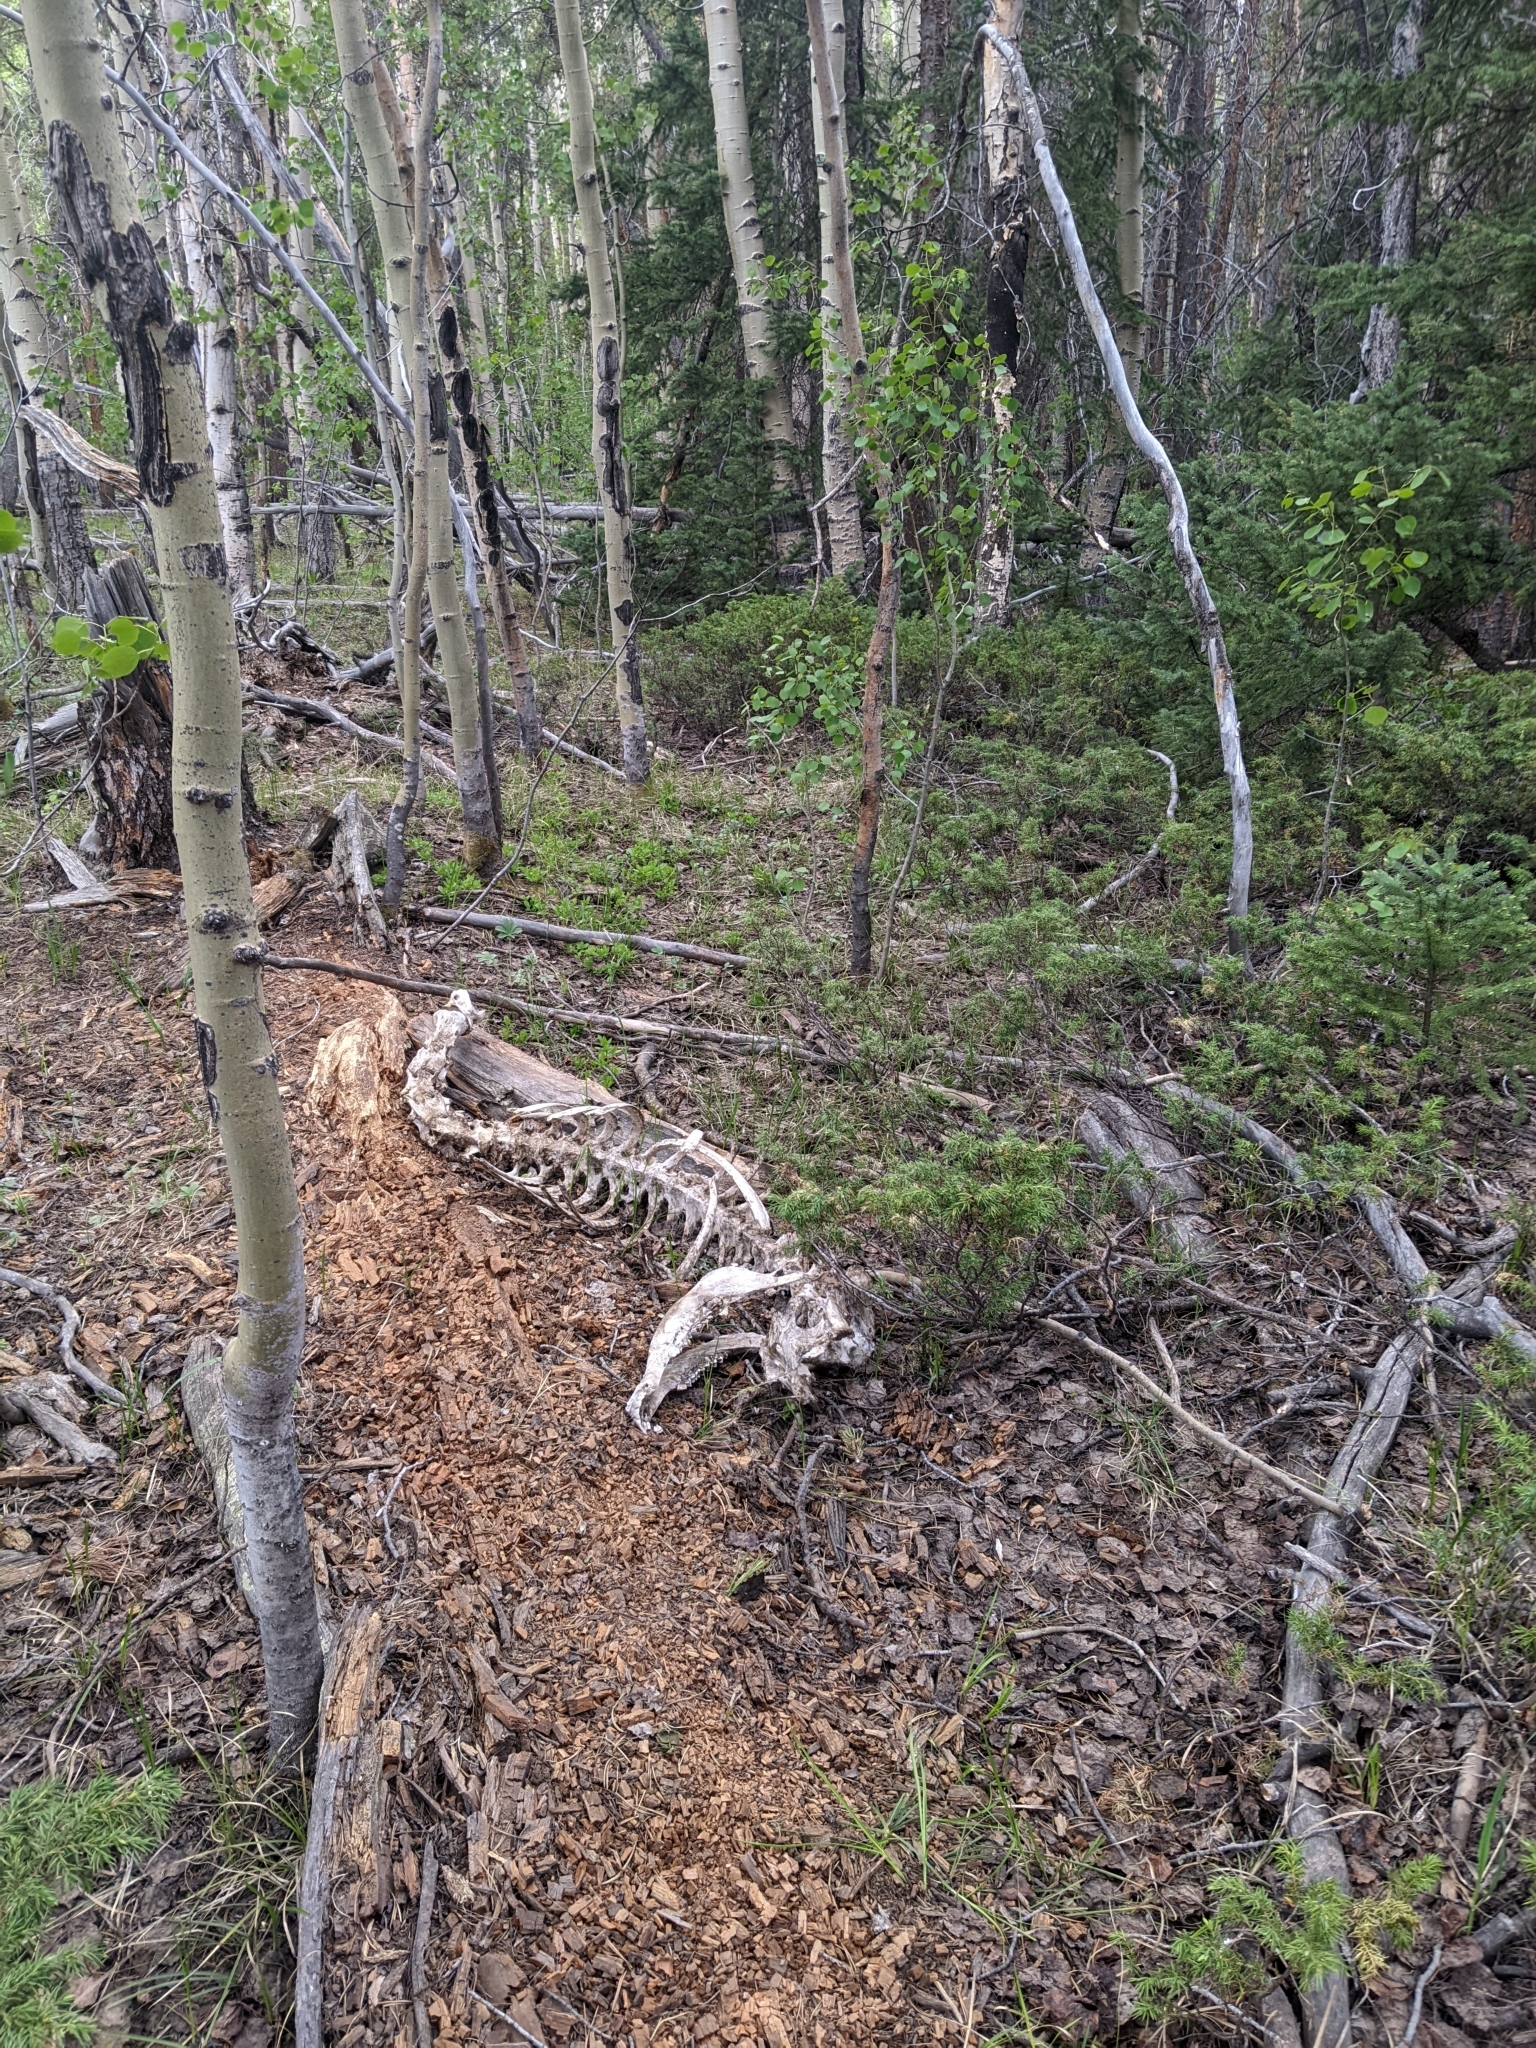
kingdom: Animalia
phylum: Chordata
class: Mammalia
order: Artiodactyla
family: Cervidae
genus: Cervus
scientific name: Cervus elaphus
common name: Red deer
